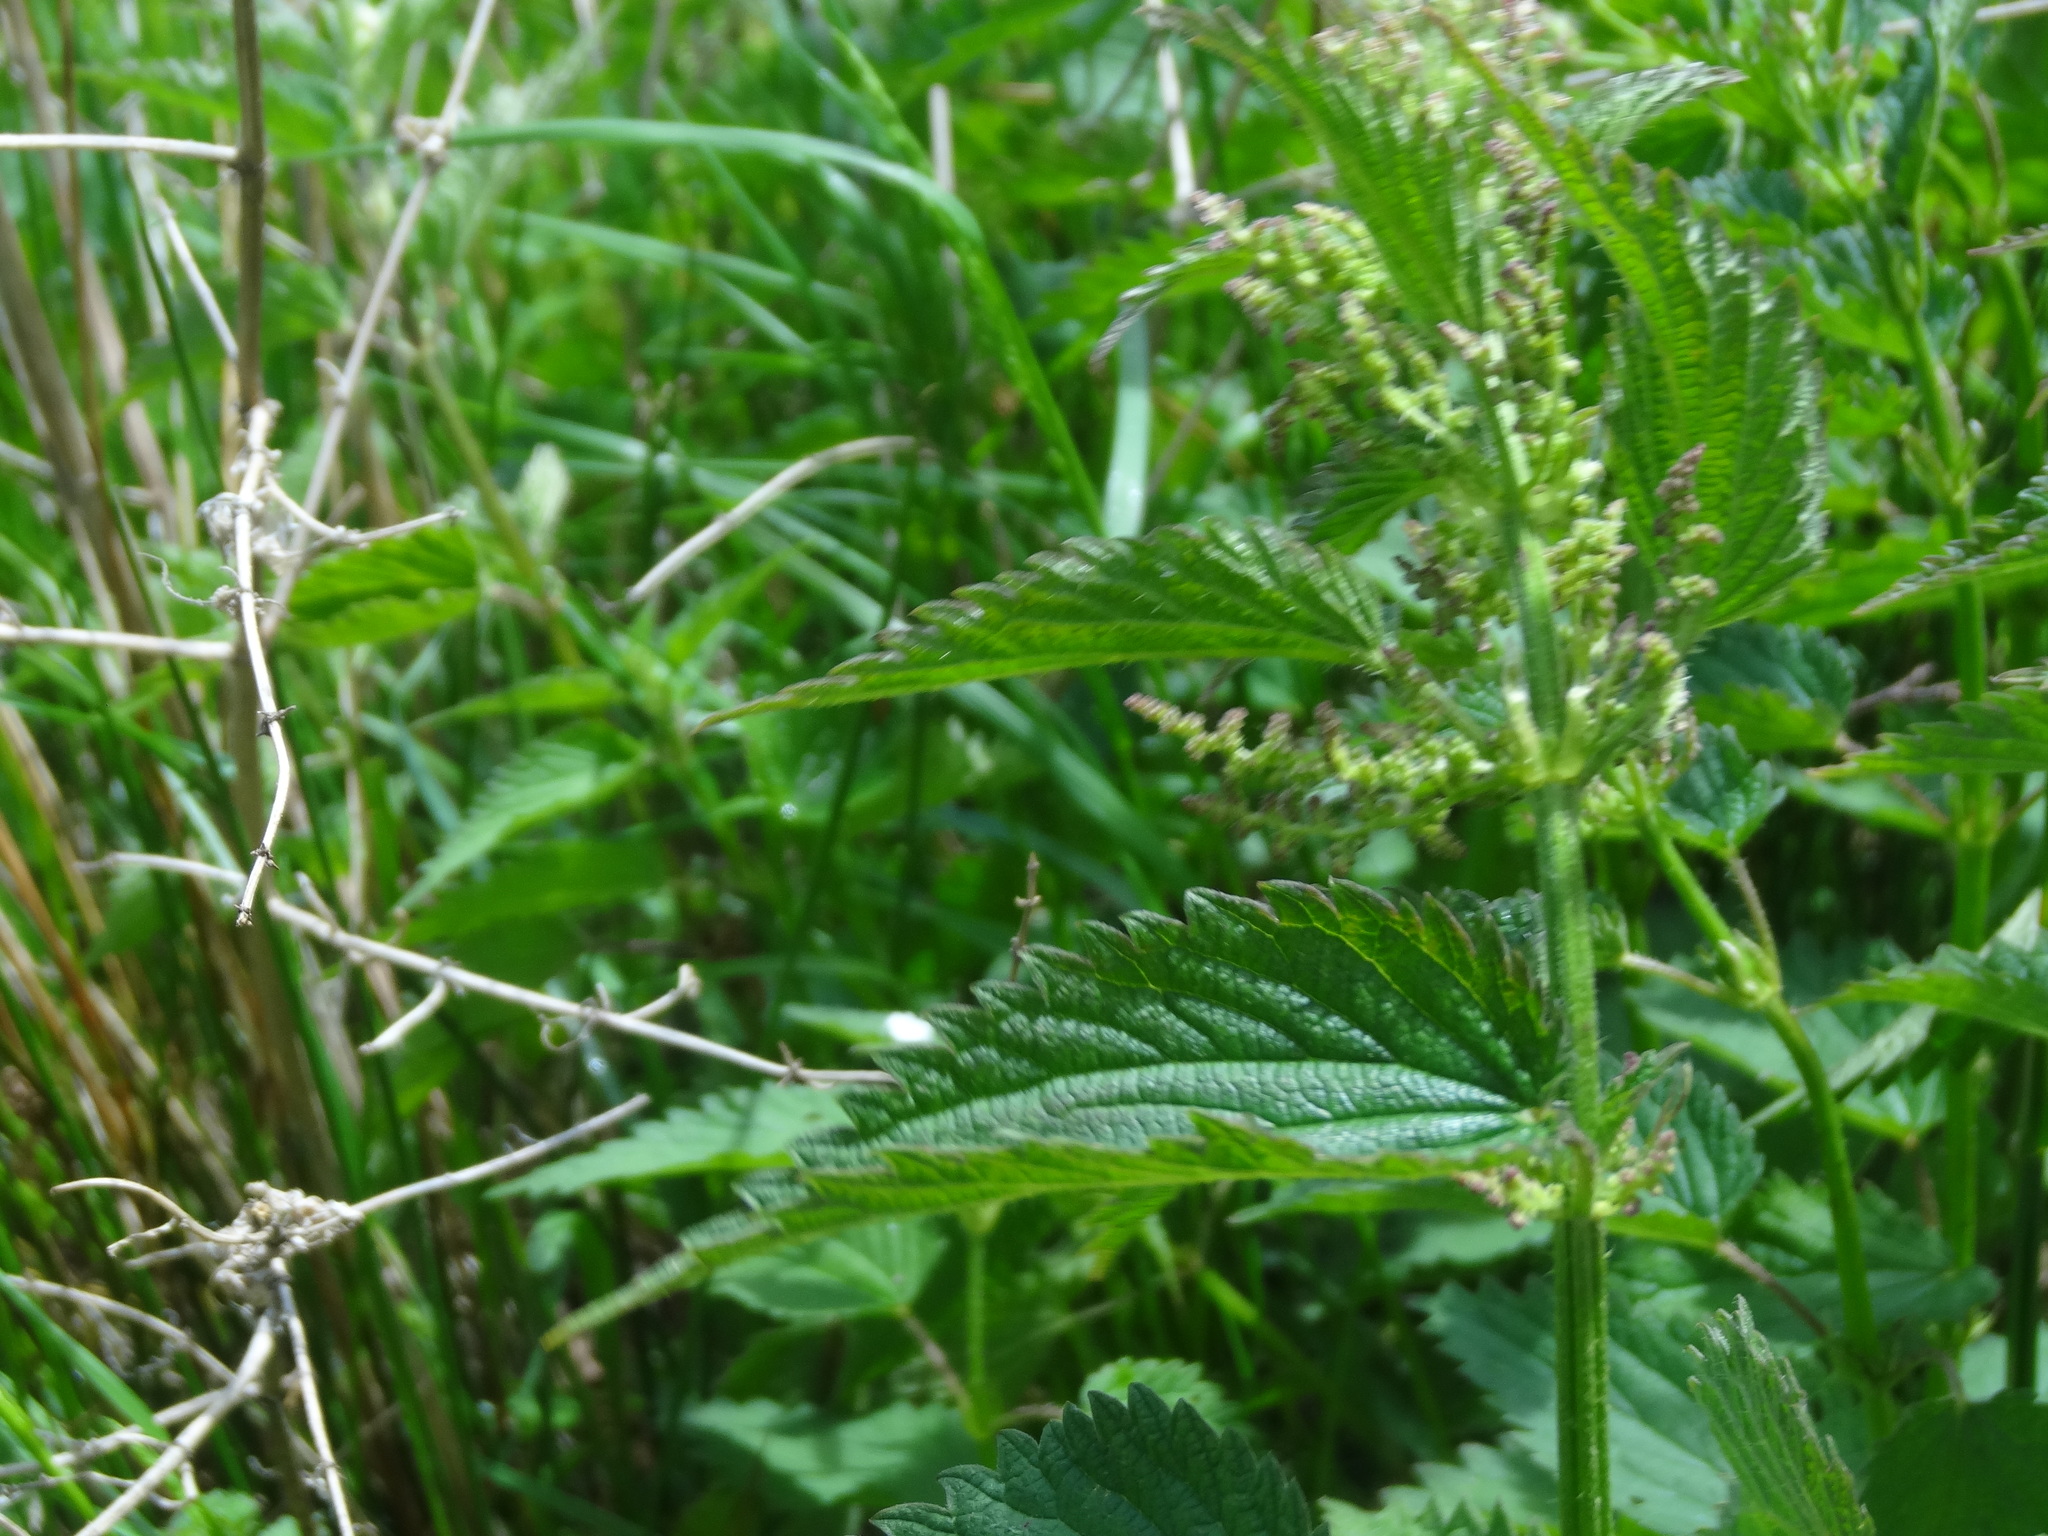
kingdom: Plantae
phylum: Tracheophyta
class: Magnoliopsida
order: Rosales
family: Urticaceae
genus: Urtica
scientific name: Urtica dioica
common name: Common nettle
